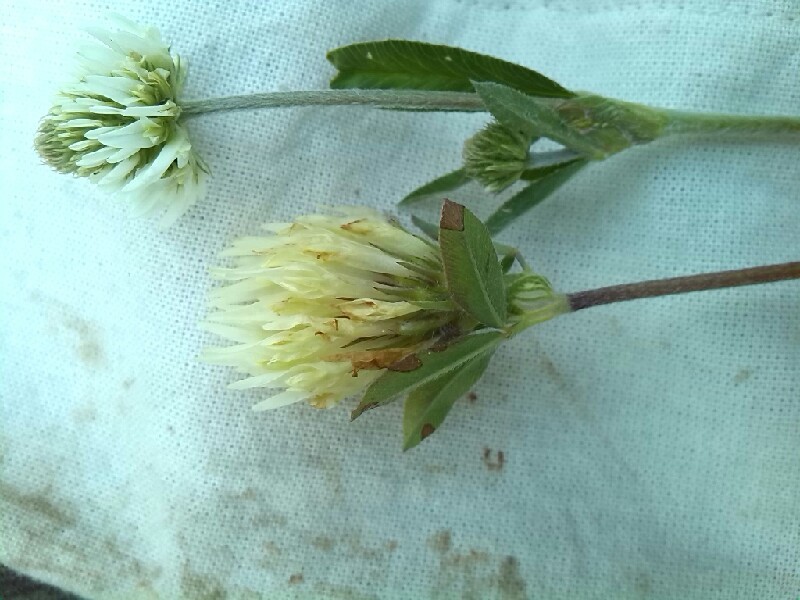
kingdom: Plantae
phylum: Tracheophyta
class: Magnoliopsida
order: Fabales
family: Fabaceae
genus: Trifolium
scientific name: Trifolium ochroleucon
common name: Sulphur clover
